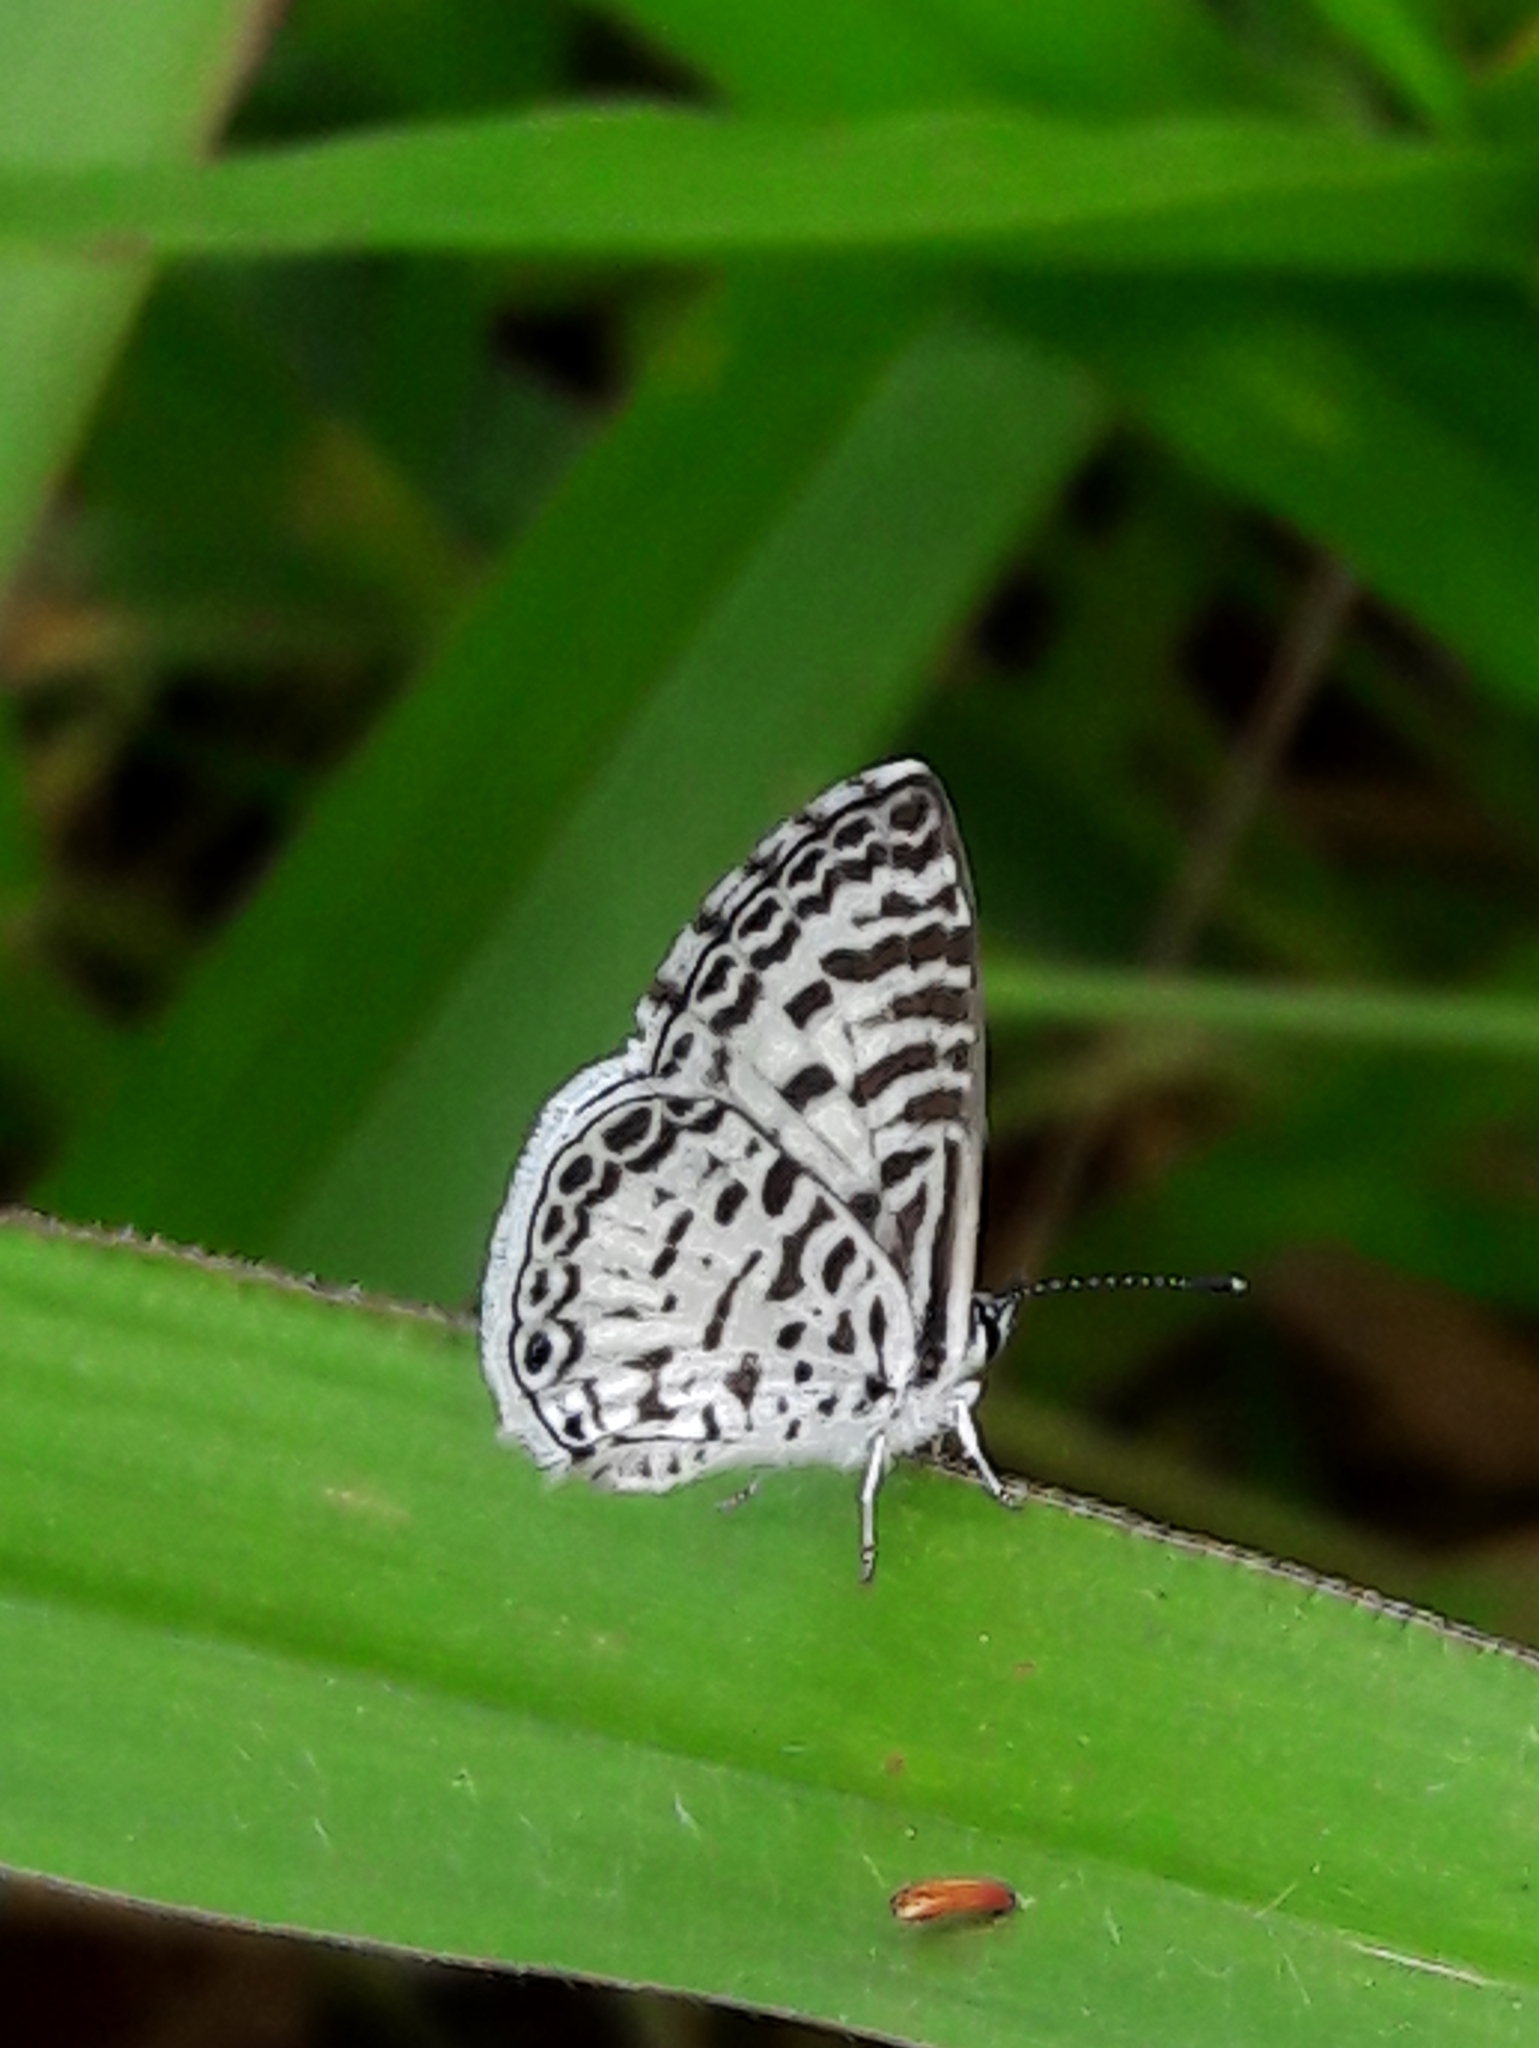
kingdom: Animalia
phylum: Arthropoda
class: Insecta
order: Lepidoptera
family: Lycaenidae
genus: Leptotes
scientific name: Leptotes cassius
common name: Cassius blue
